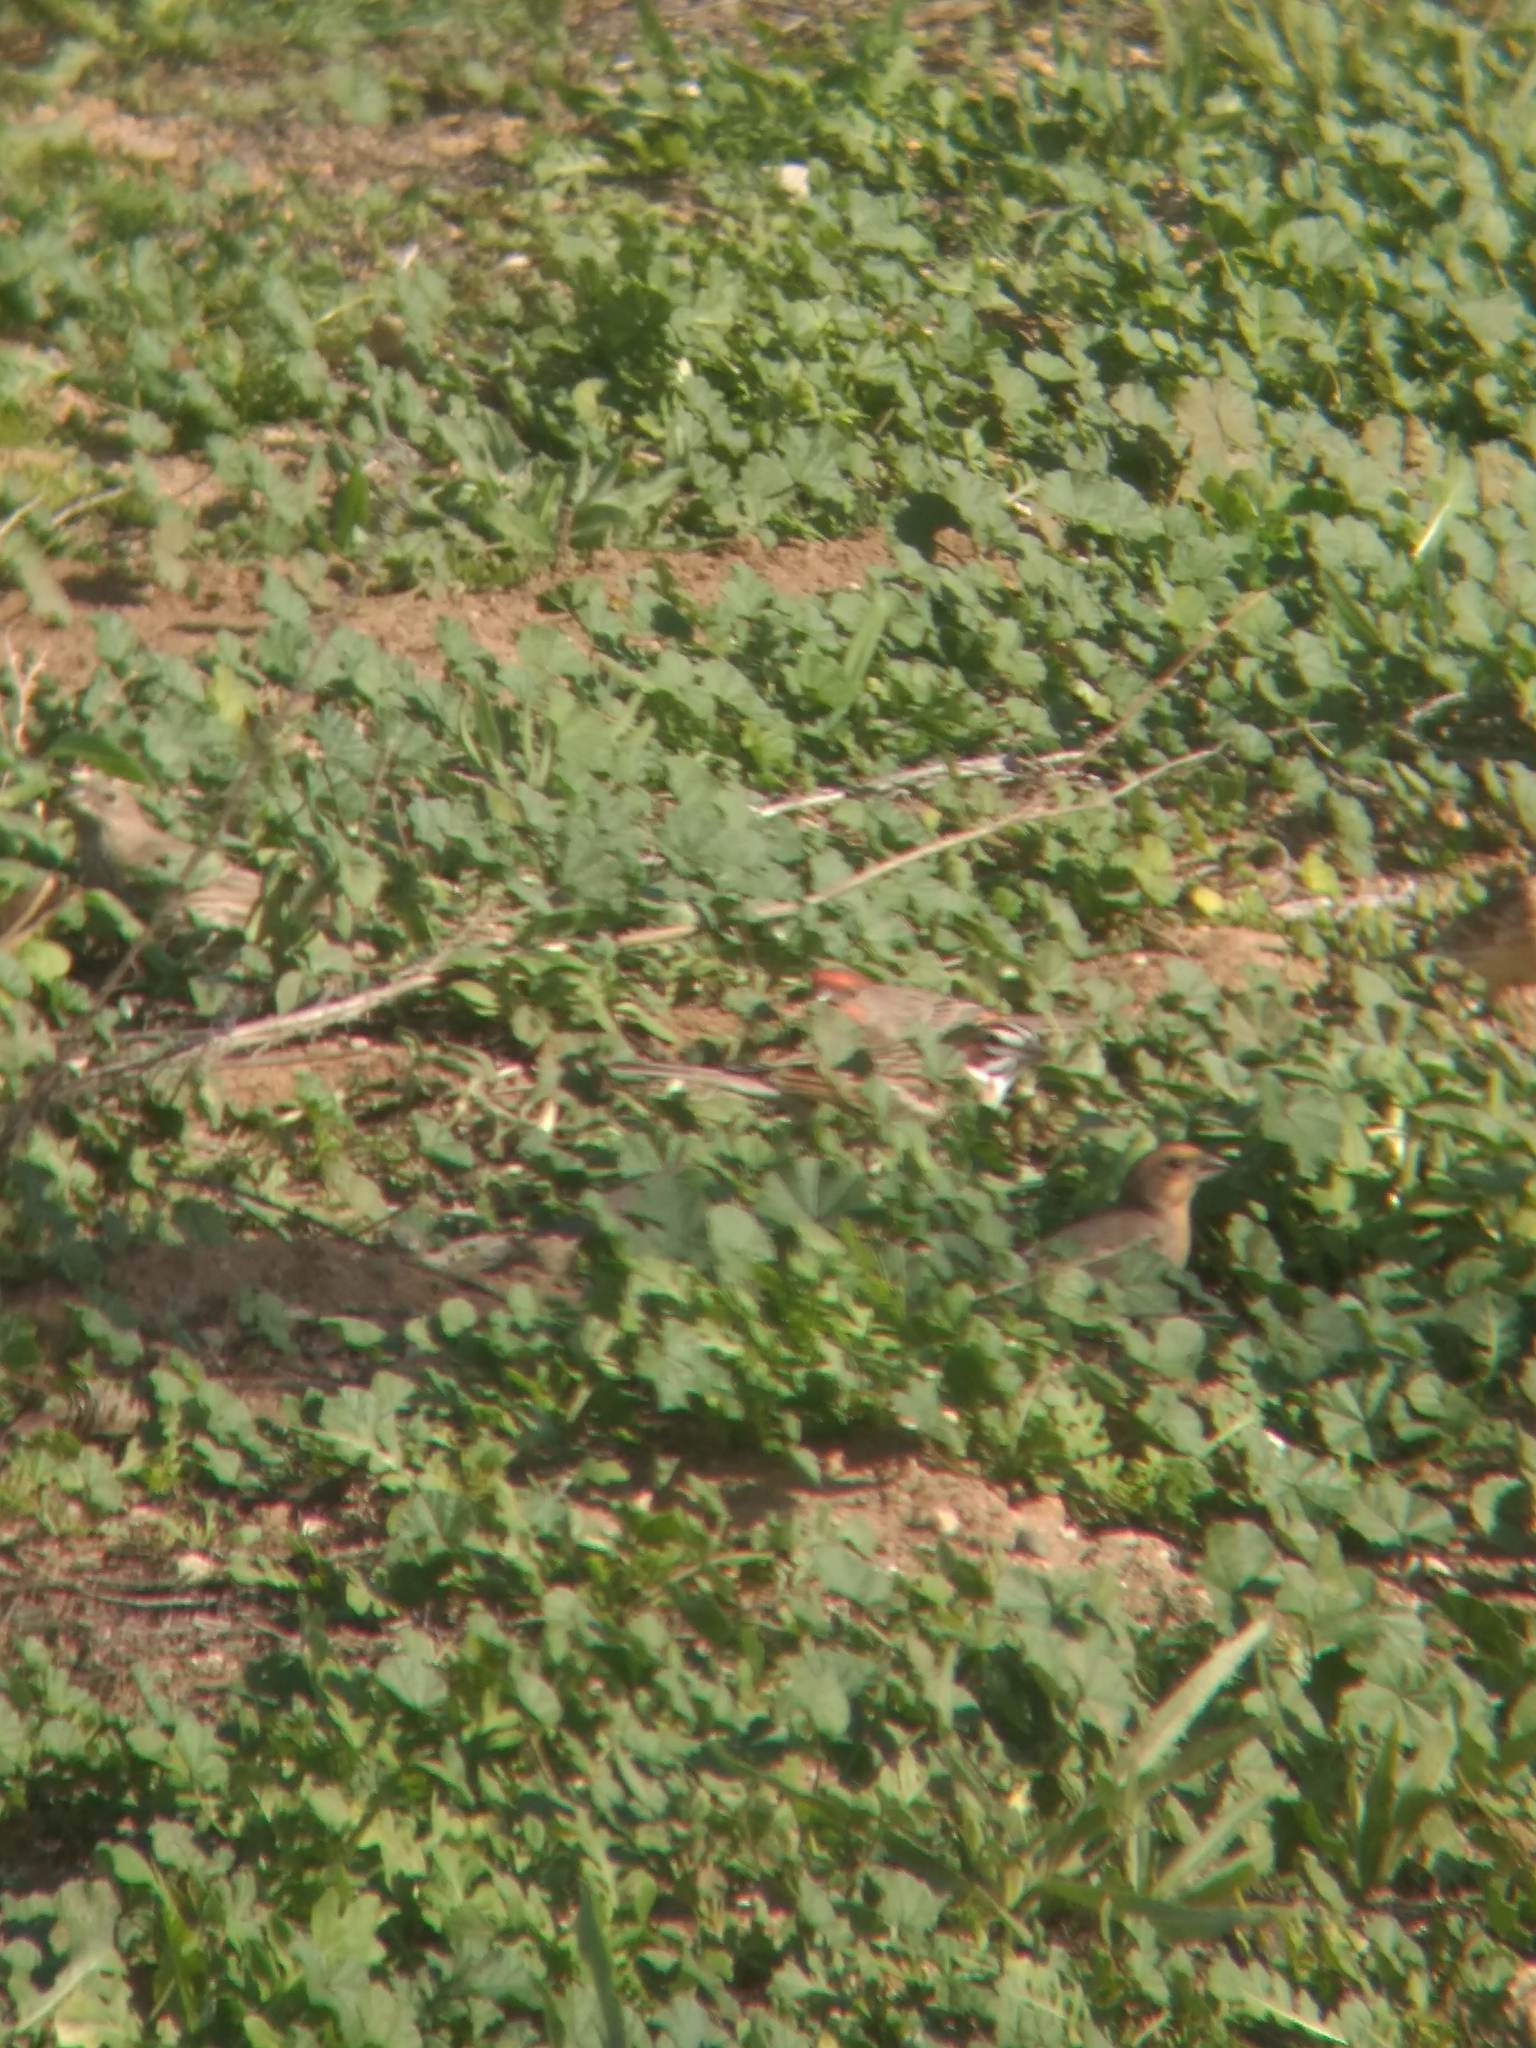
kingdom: Animalia
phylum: Chordata
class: Aves
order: Passeriformes
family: Fringillidae
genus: Haemorhous
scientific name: Haemorhous mexicanus
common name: House finch
